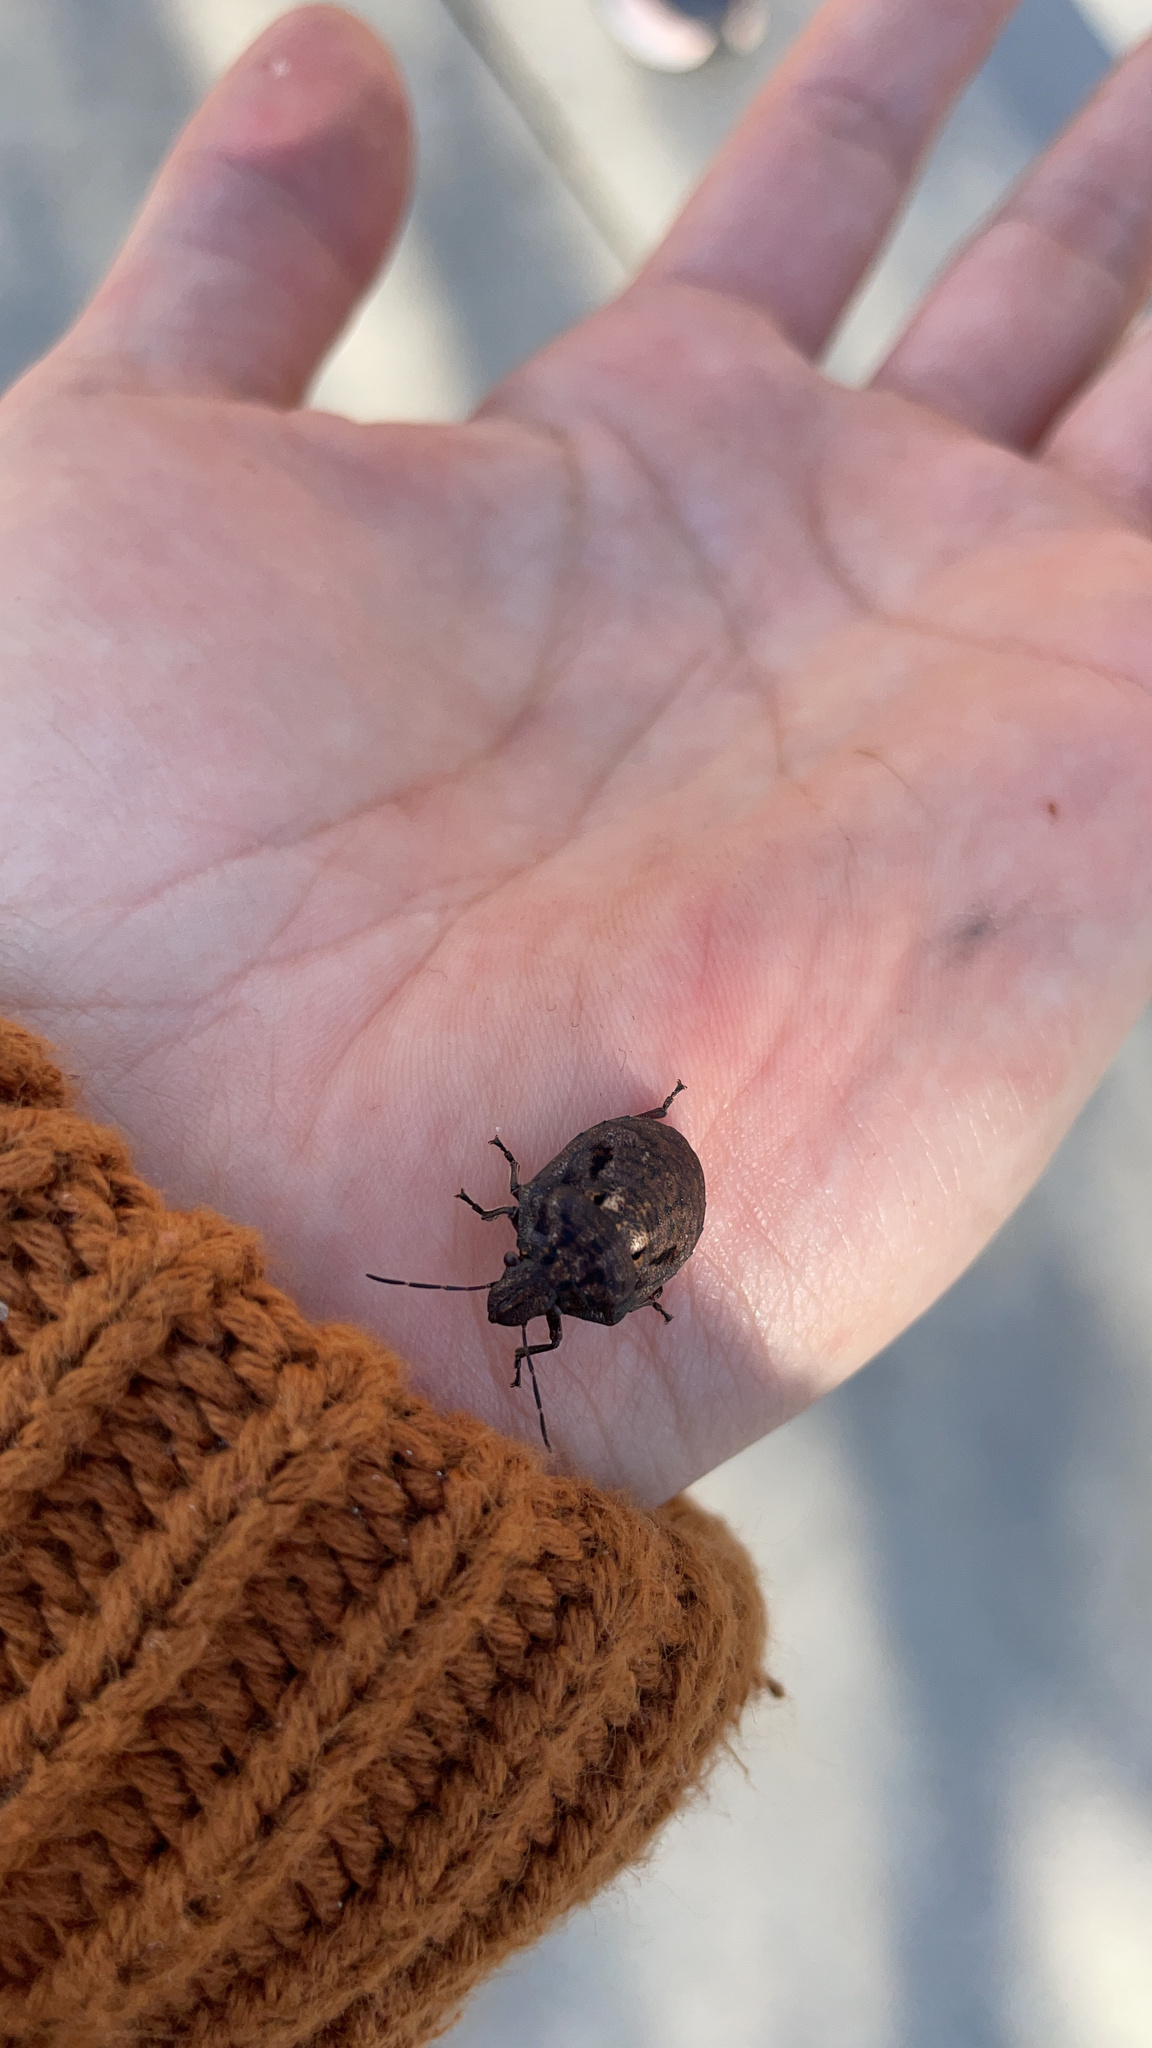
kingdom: Animalia
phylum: Arthropoda
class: Insecta
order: Hemiptera
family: Scutelleridae
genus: Tetyra
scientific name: Tetyra bipunctata
